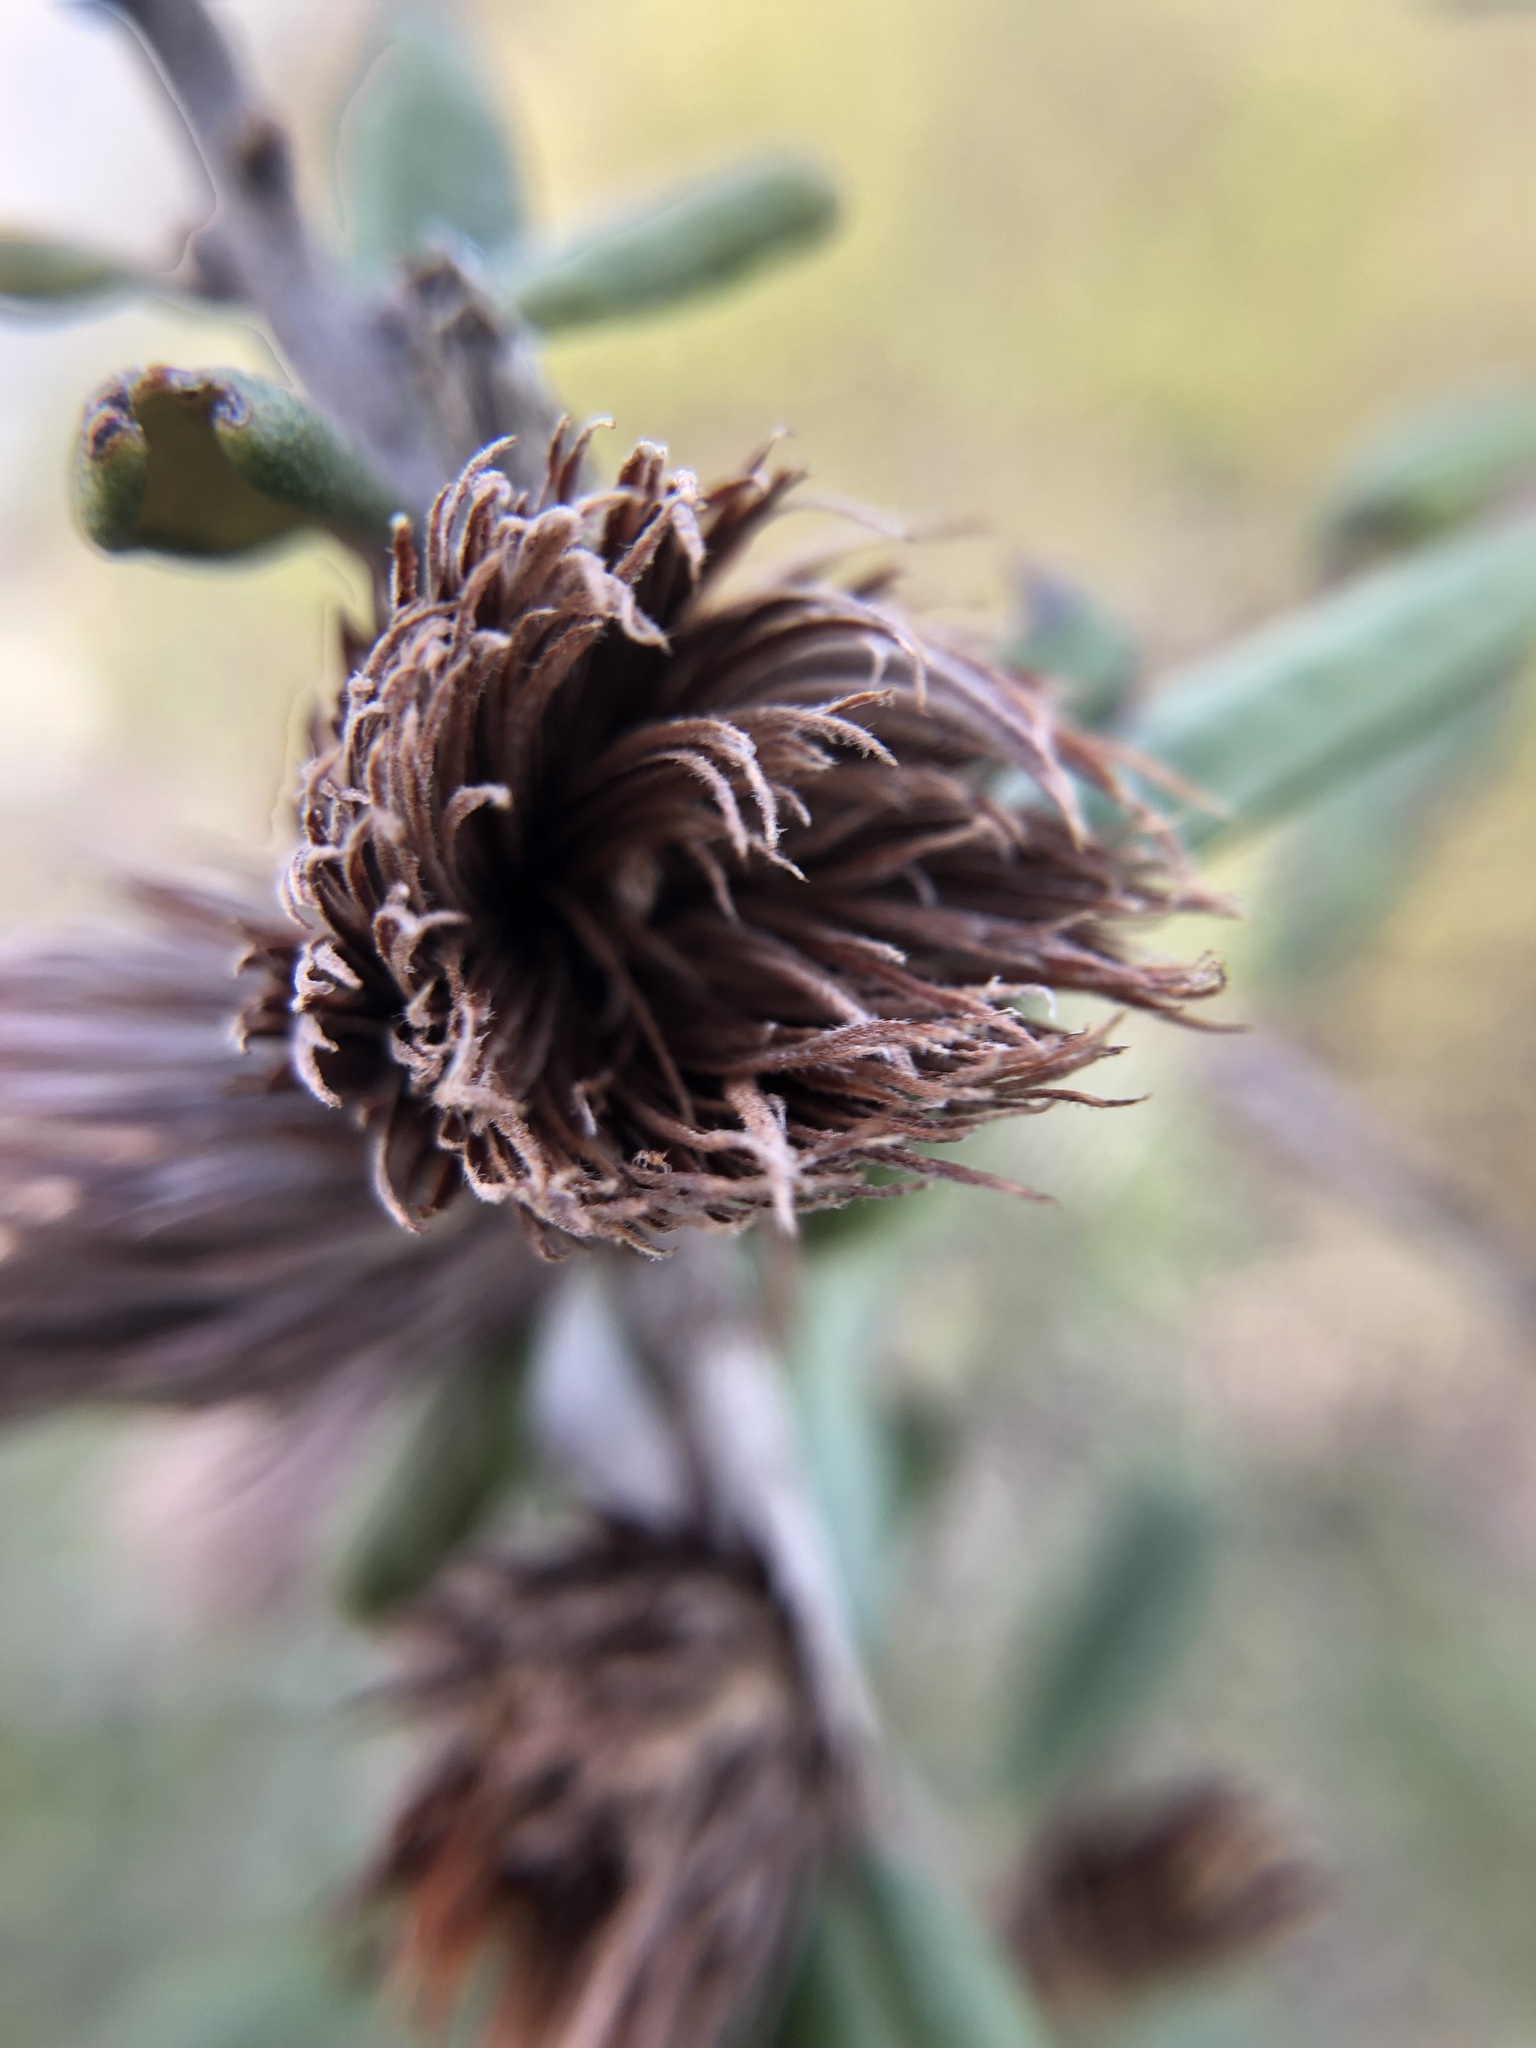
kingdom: Animalia
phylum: Arthropoda
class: Insecta
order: Hymenoptera
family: Cynipidae
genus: Andricus
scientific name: Andricus quercusfoliatus
